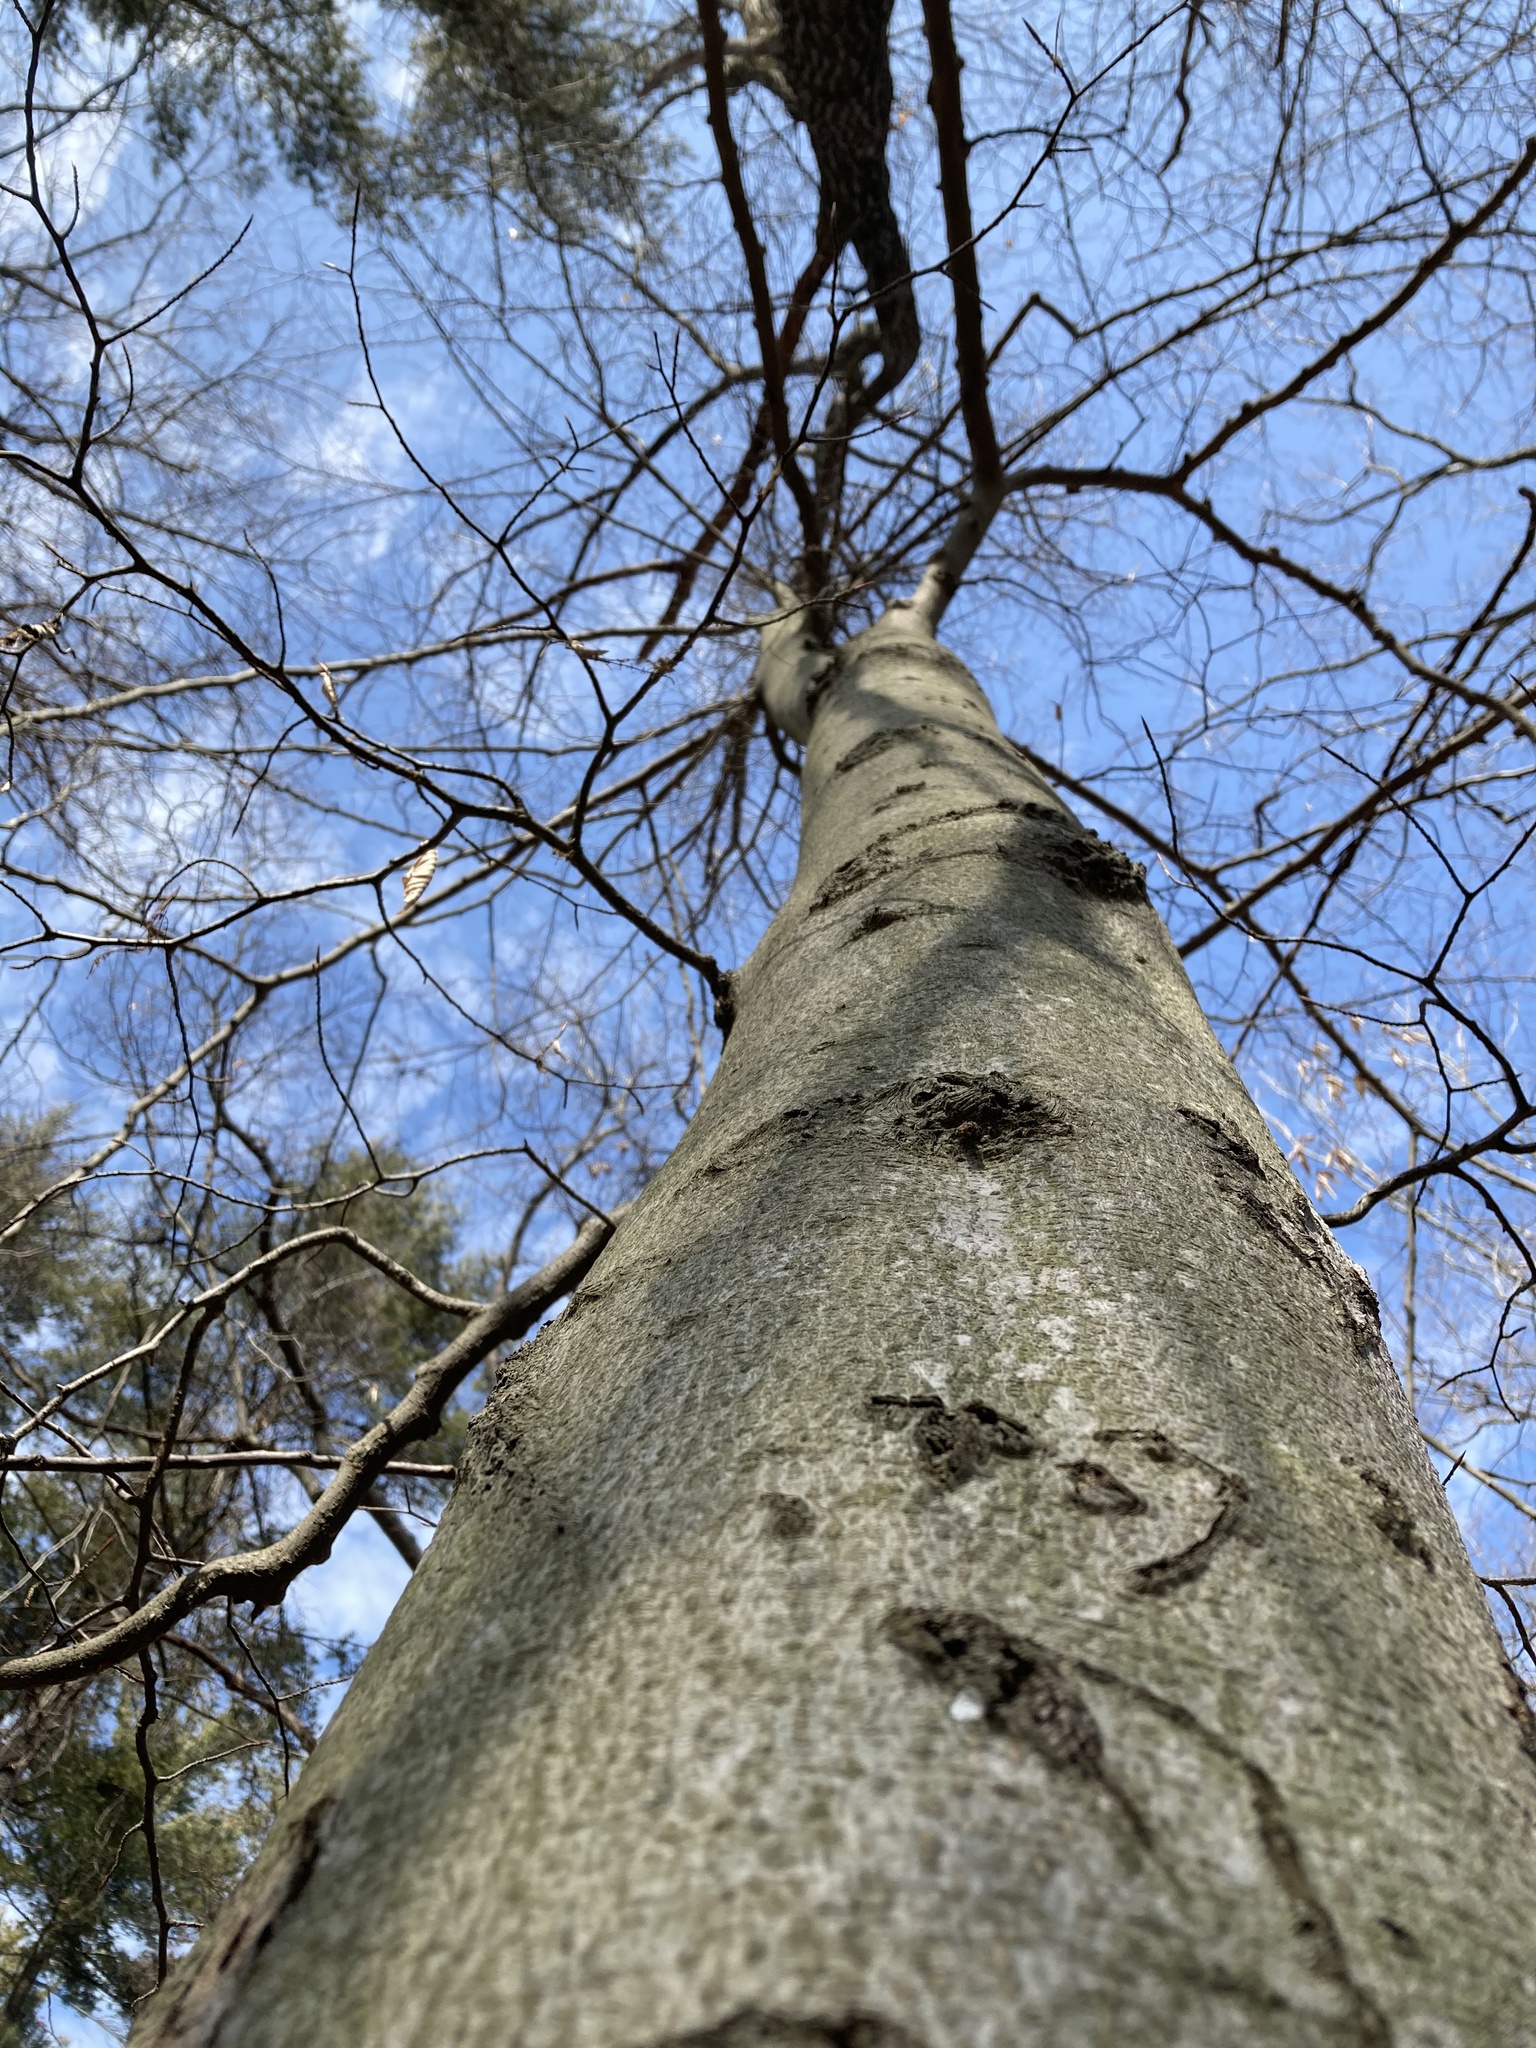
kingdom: Plantae
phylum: Tracheophyta
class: Magnoliopsida
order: Fagales
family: Fagaceae
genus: Fagus
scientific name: Fagus grandifolia
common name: American beech
